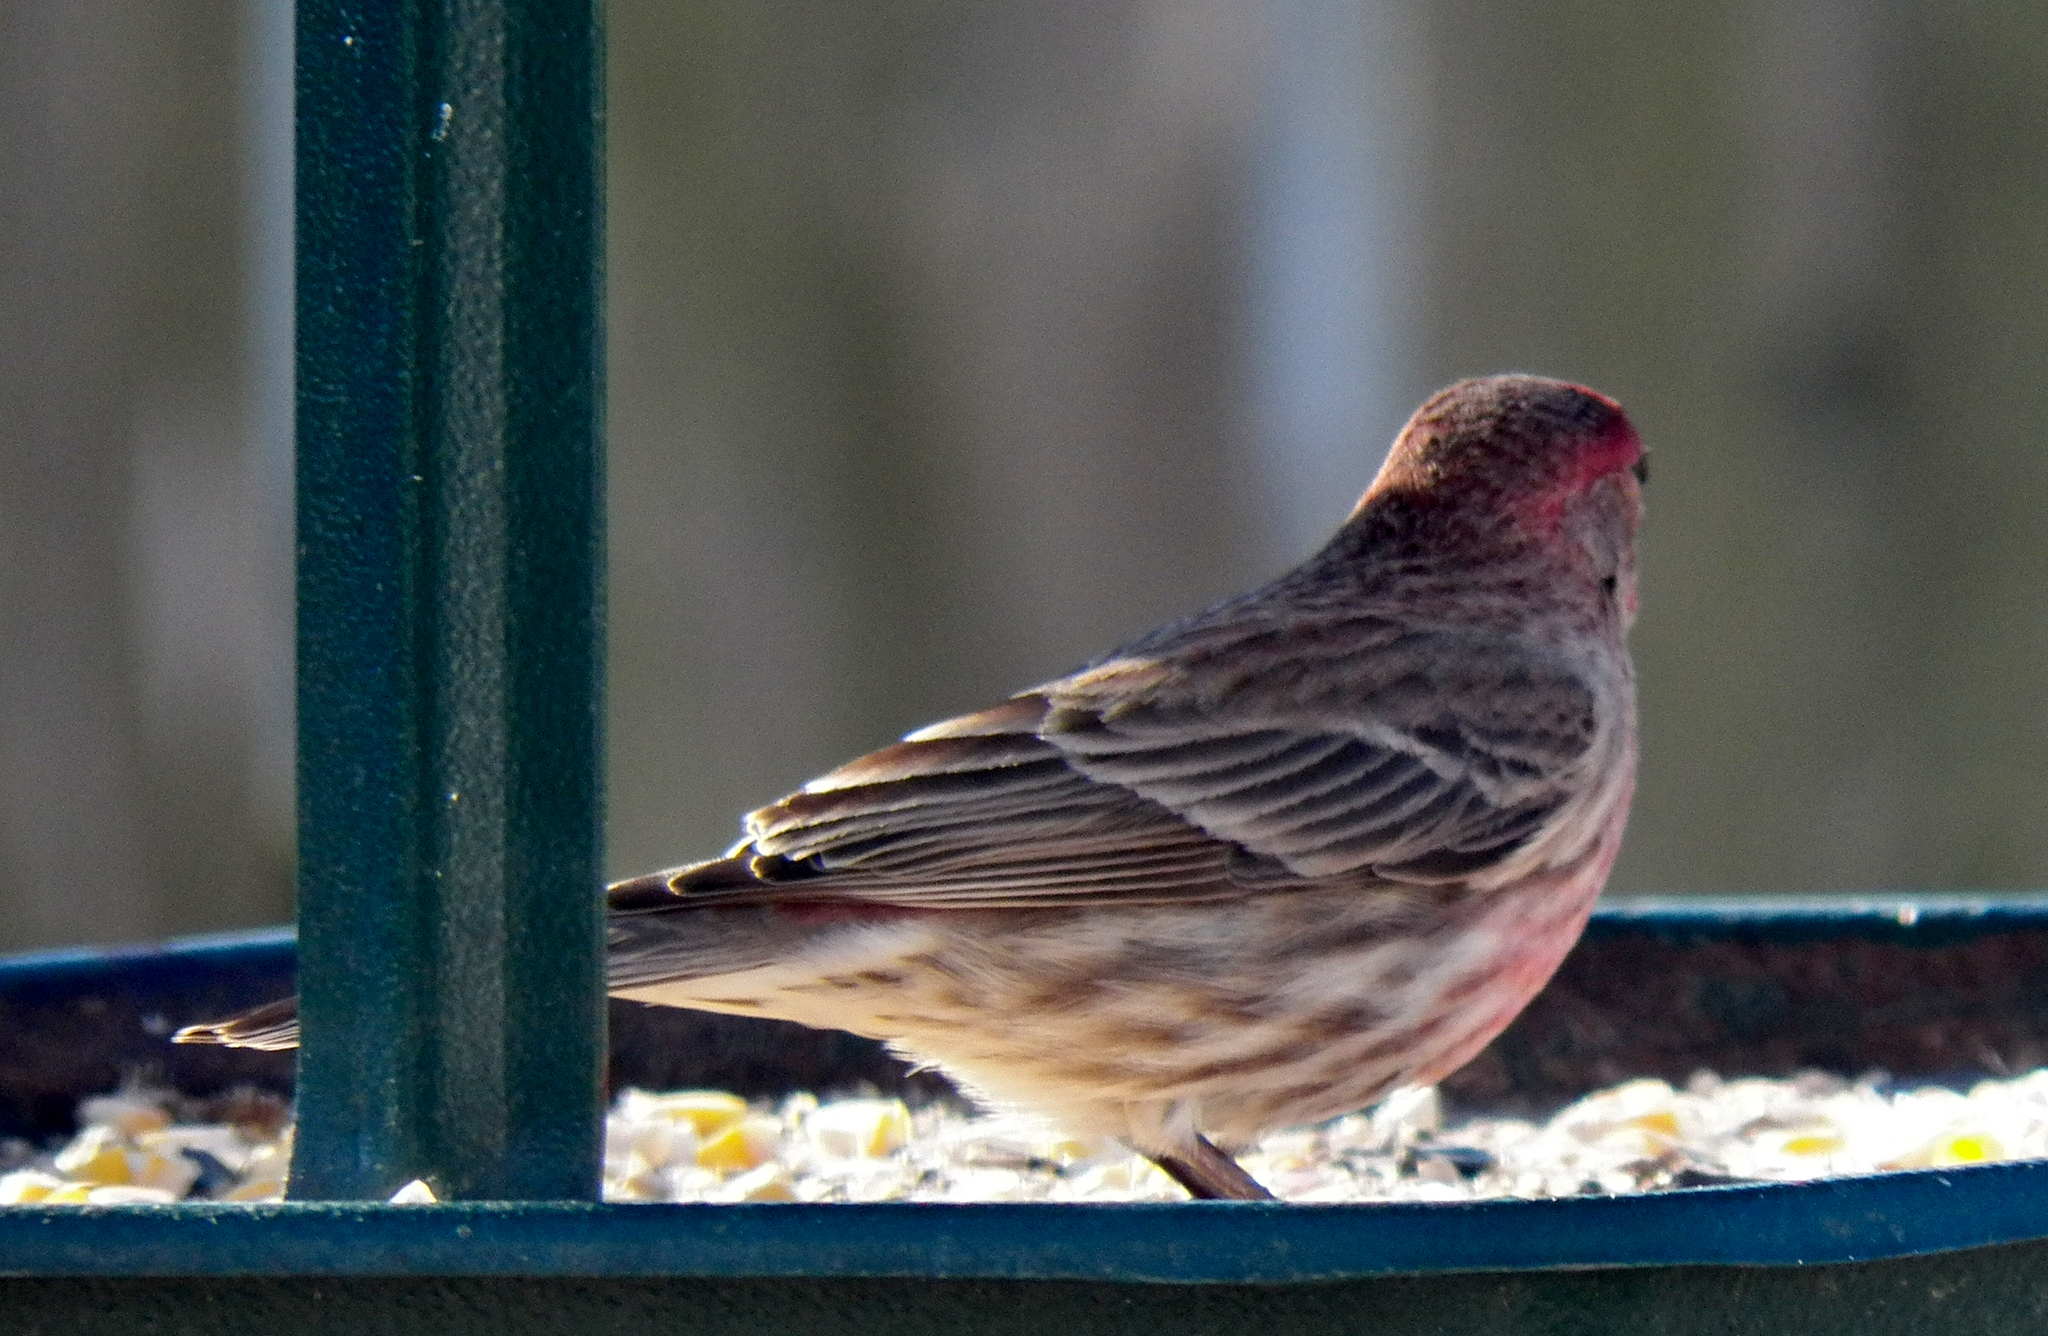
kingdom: Animalia
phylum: Chordata
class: Aves
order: Passeriformes
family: Fringillidae
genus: Haemorhous
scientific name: Haemorhous mexicanus
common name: House finch
